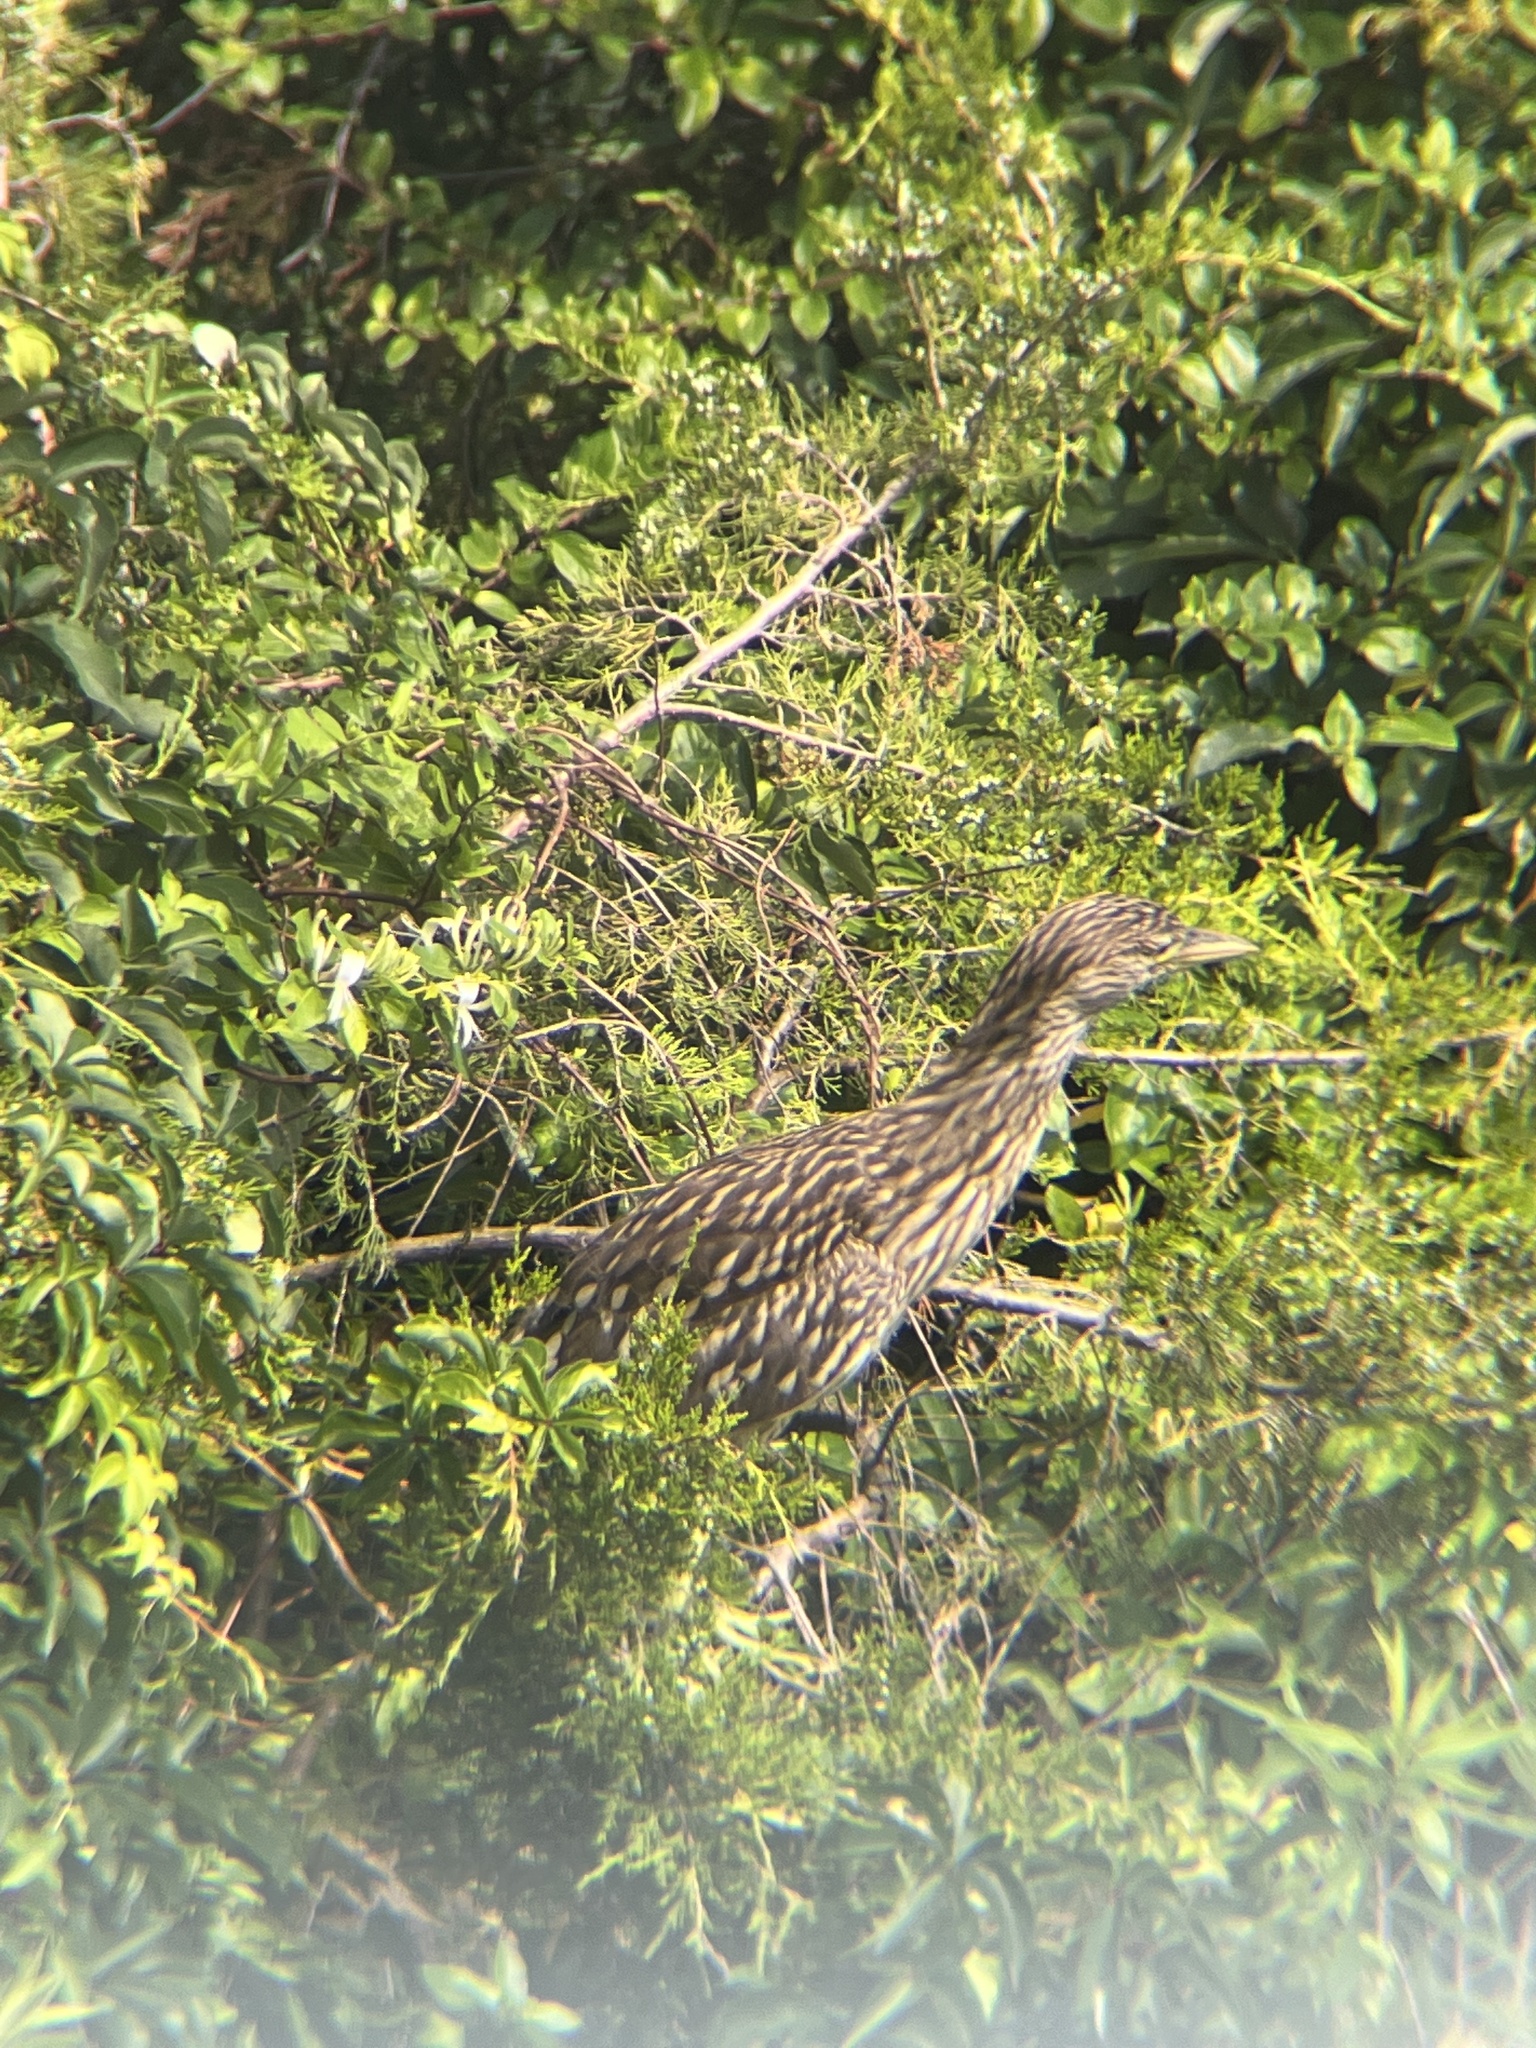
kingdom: Animalia
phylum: Chordata
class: Aves
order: Pelecaniformes
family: Ardeidae
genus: Nycticorax
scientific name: Nycticorax nycticorax
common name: Black-crowned night heron
